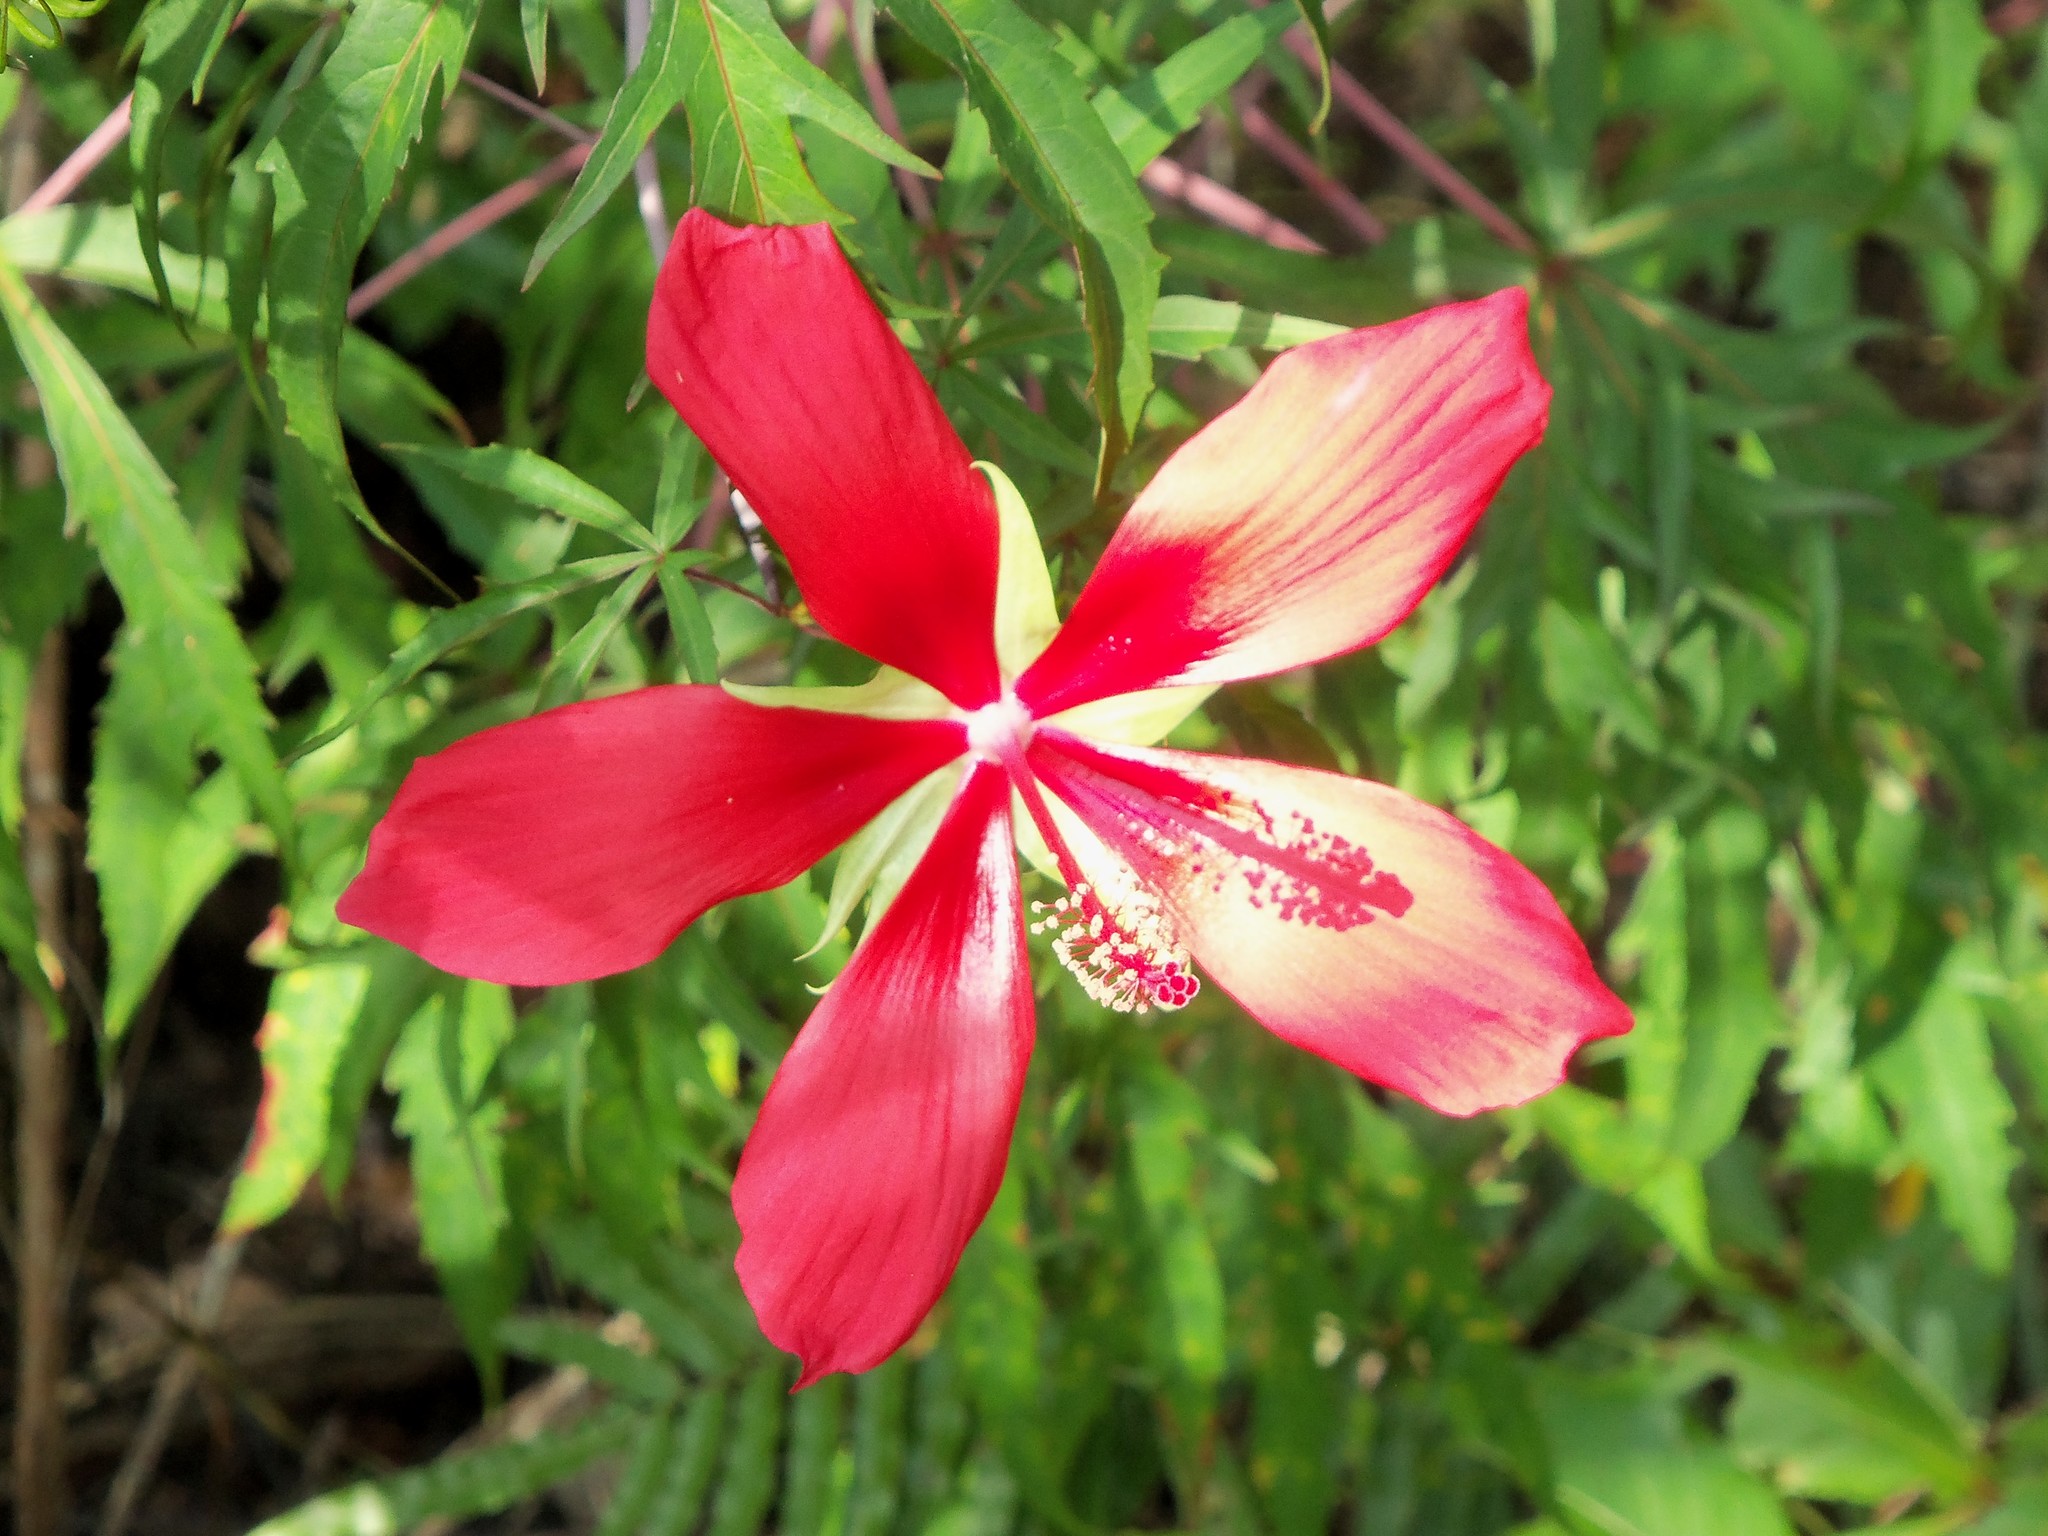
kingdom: Plantae
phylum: Tracheophyta
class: Magnoliopsida
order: Malvales
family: Malvaceae
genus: Hibiscus
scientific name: Hibiscus coccineus
